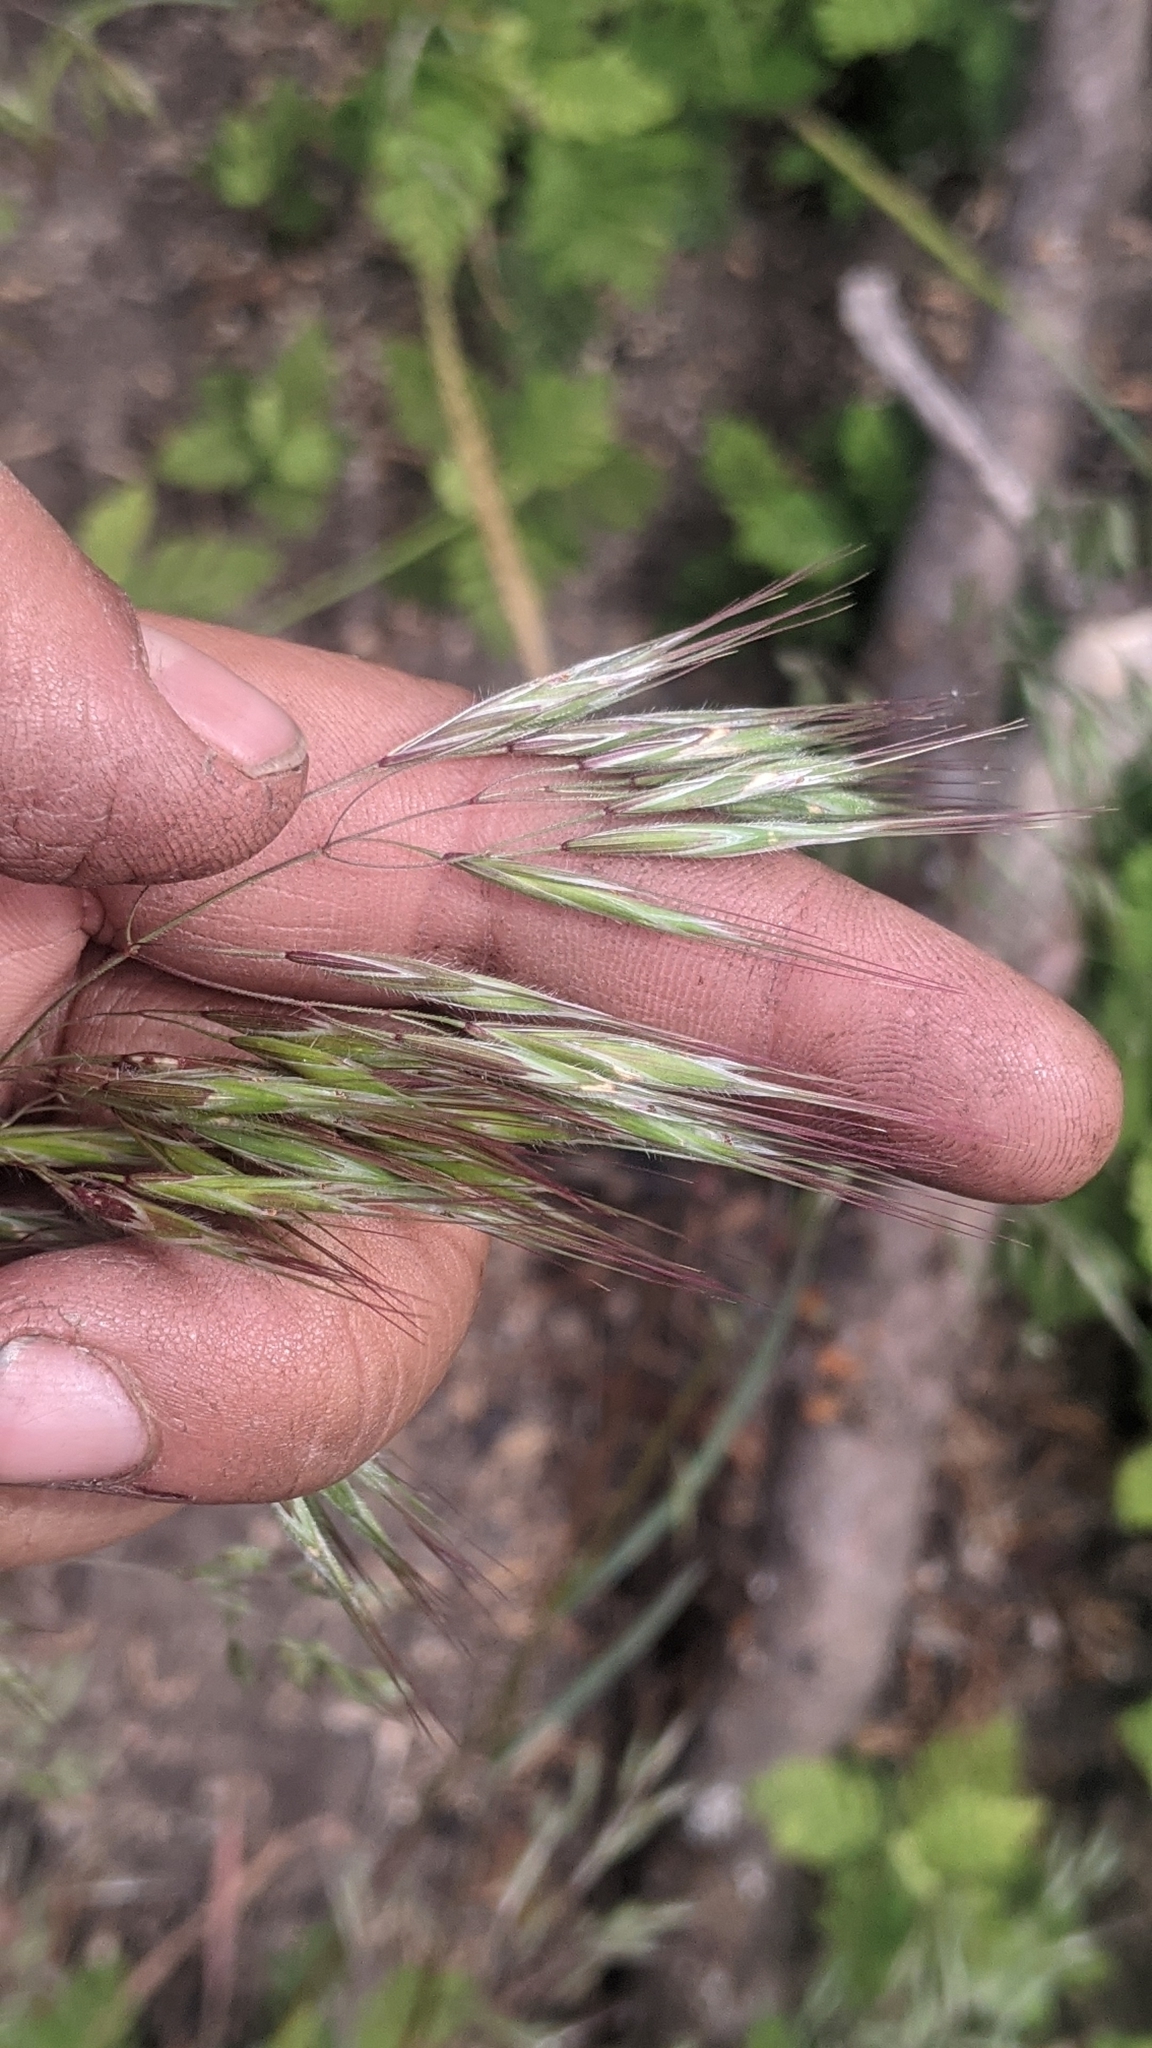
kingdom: Plantae
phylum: Tracheophyta
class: Liliopsida
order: Poales
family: Poaceae
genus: Bromus
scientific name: Bromus tectorum
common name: Cheatgrass
